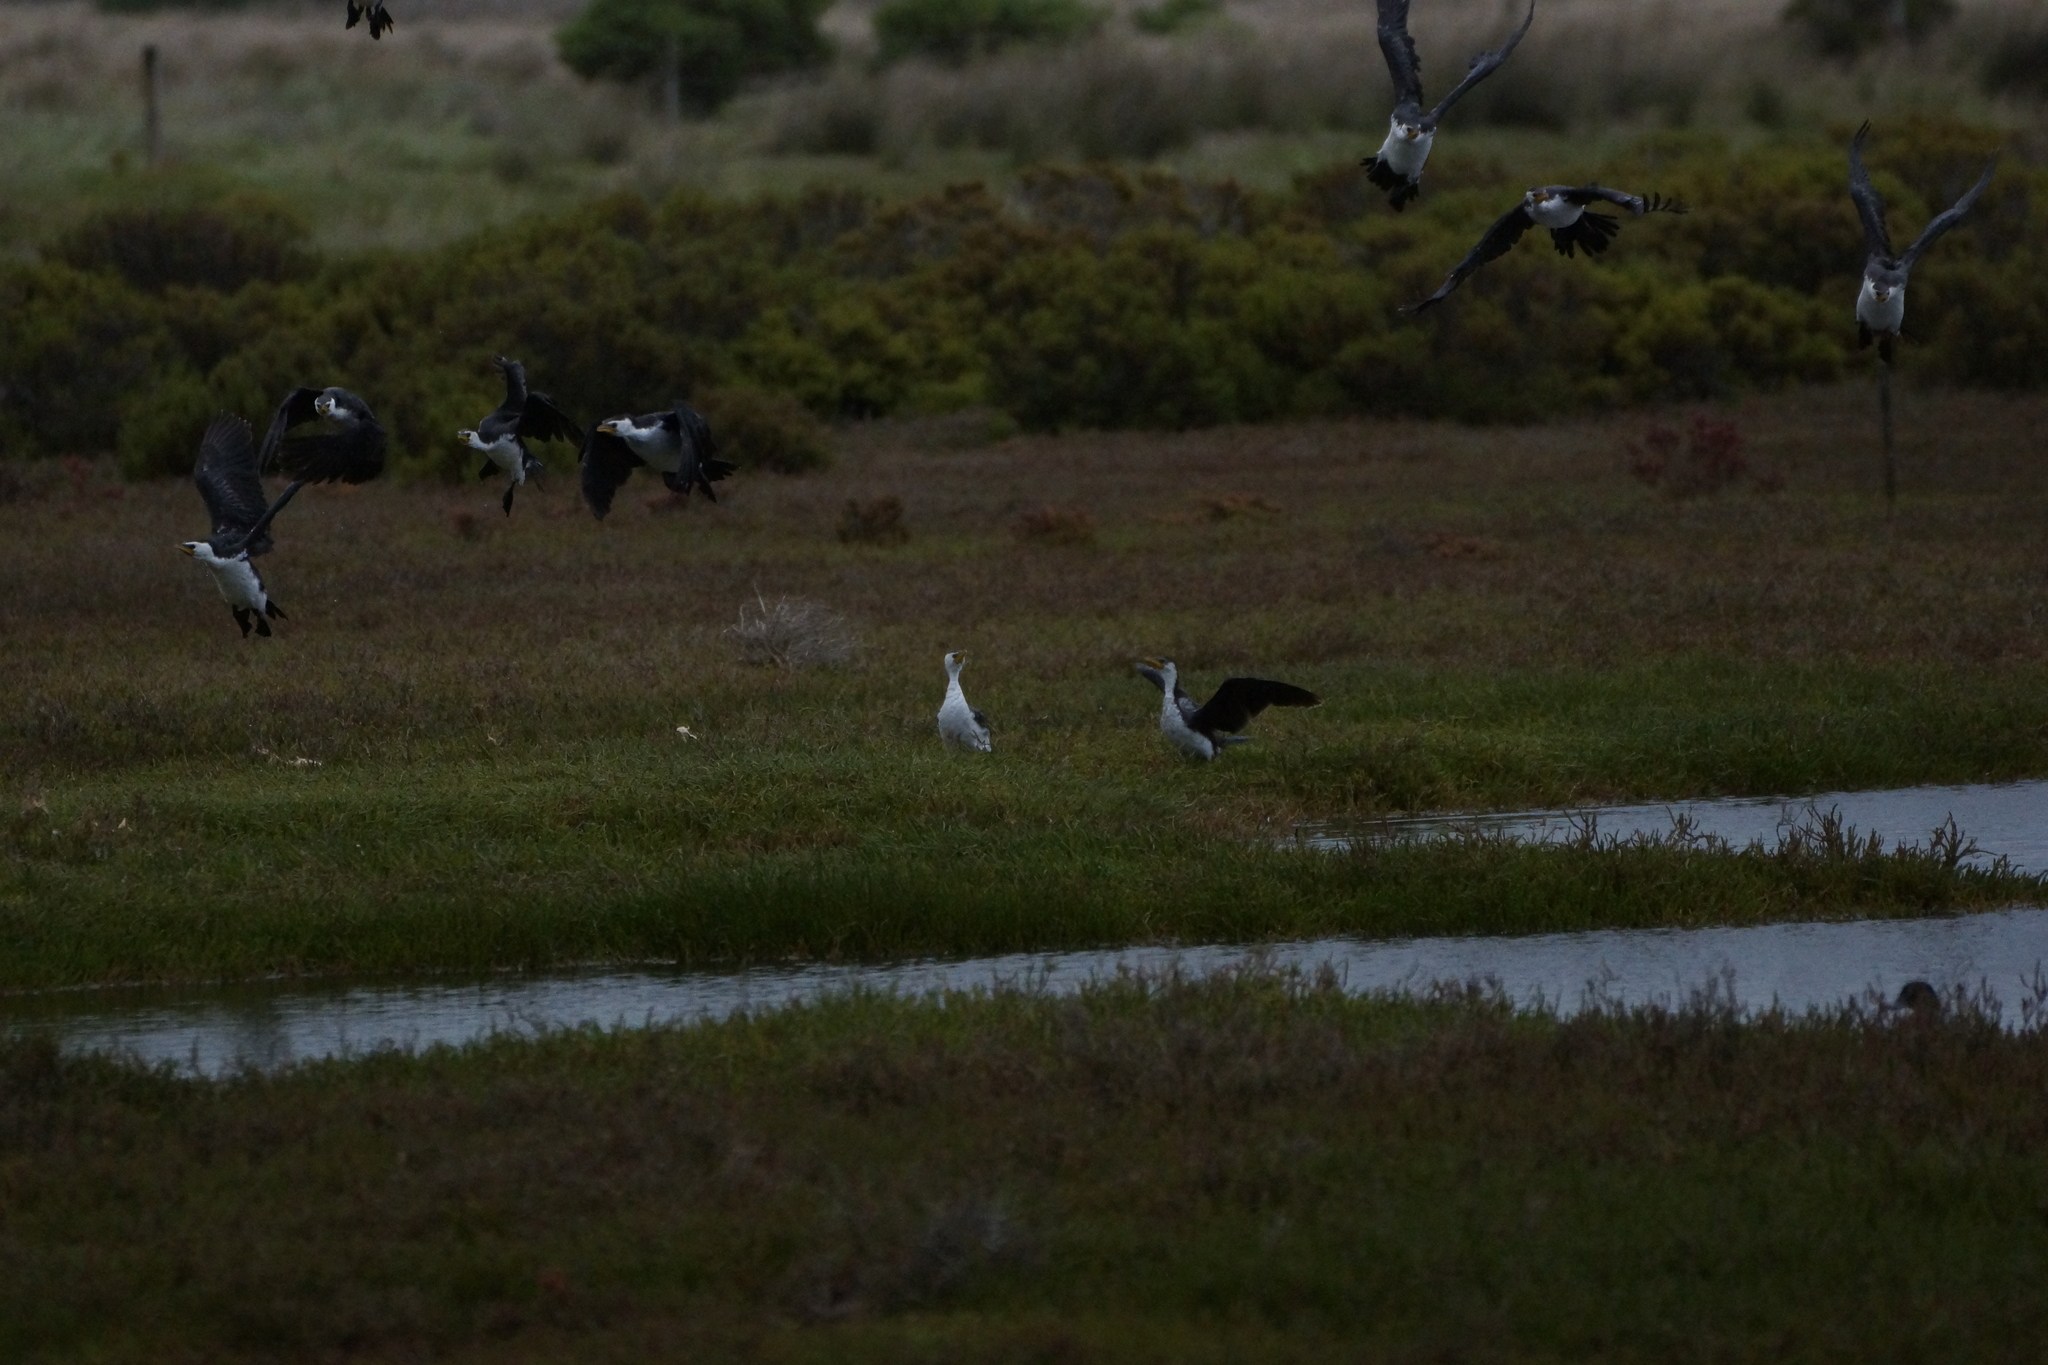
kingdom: Animalia
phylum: Chordata
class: Aves
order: Suliformes
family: Phalacrocoracidae
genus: Microcarbo
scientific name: Microcarbo melanoleucos
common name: Little pied cormorant
